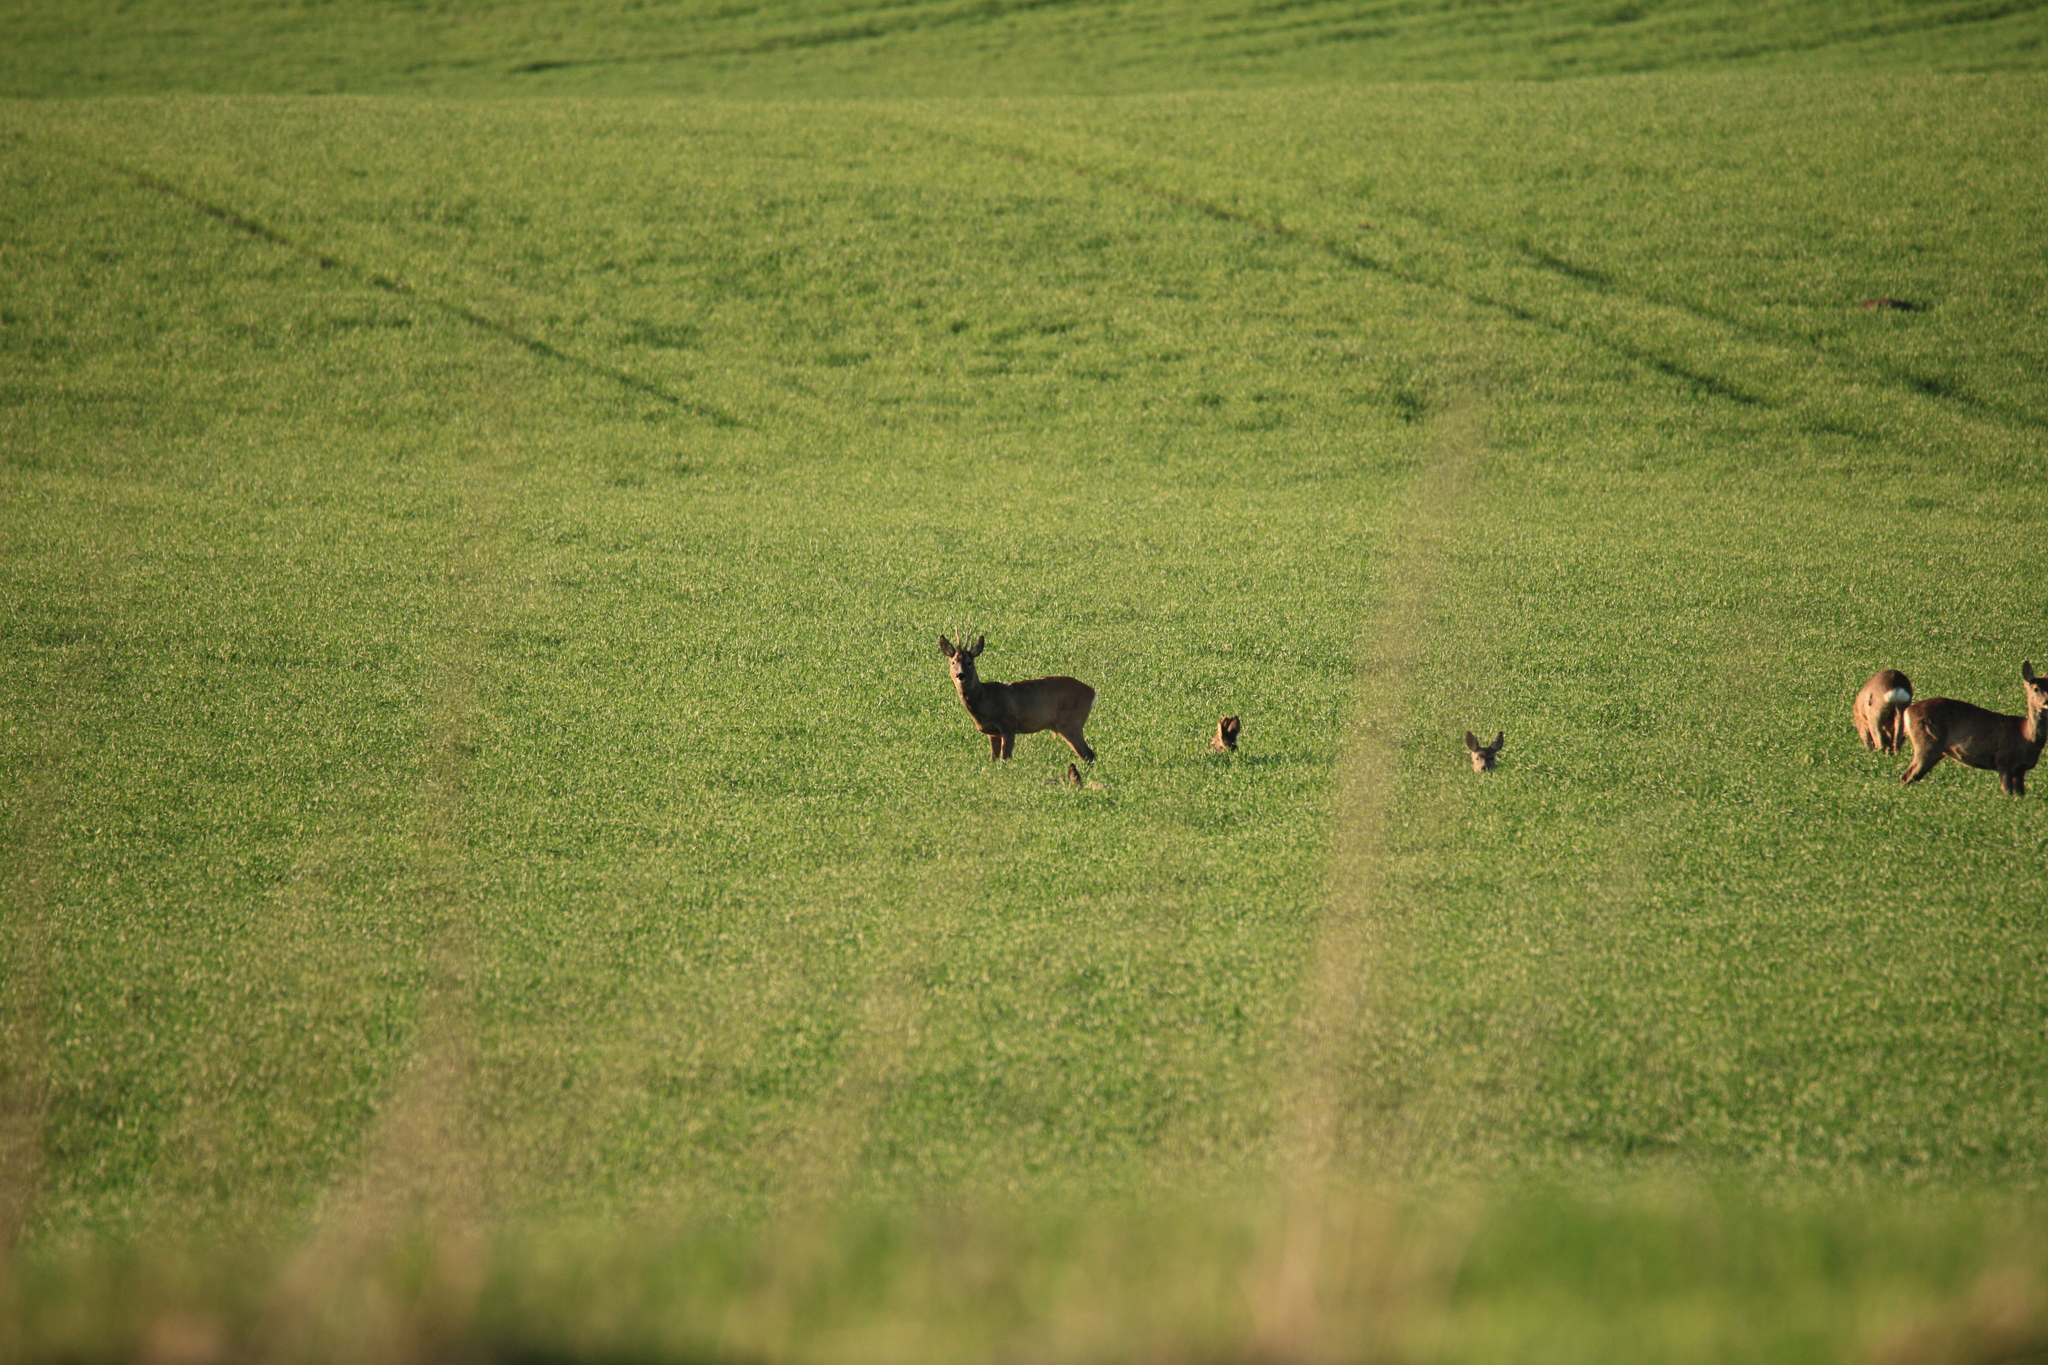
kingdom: Animalia
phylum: Chordata
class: Mammalia
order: Artiodactyla
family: Cervidae
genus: Capreolus
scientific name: Capreolus capreolus
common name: Western roe deer
